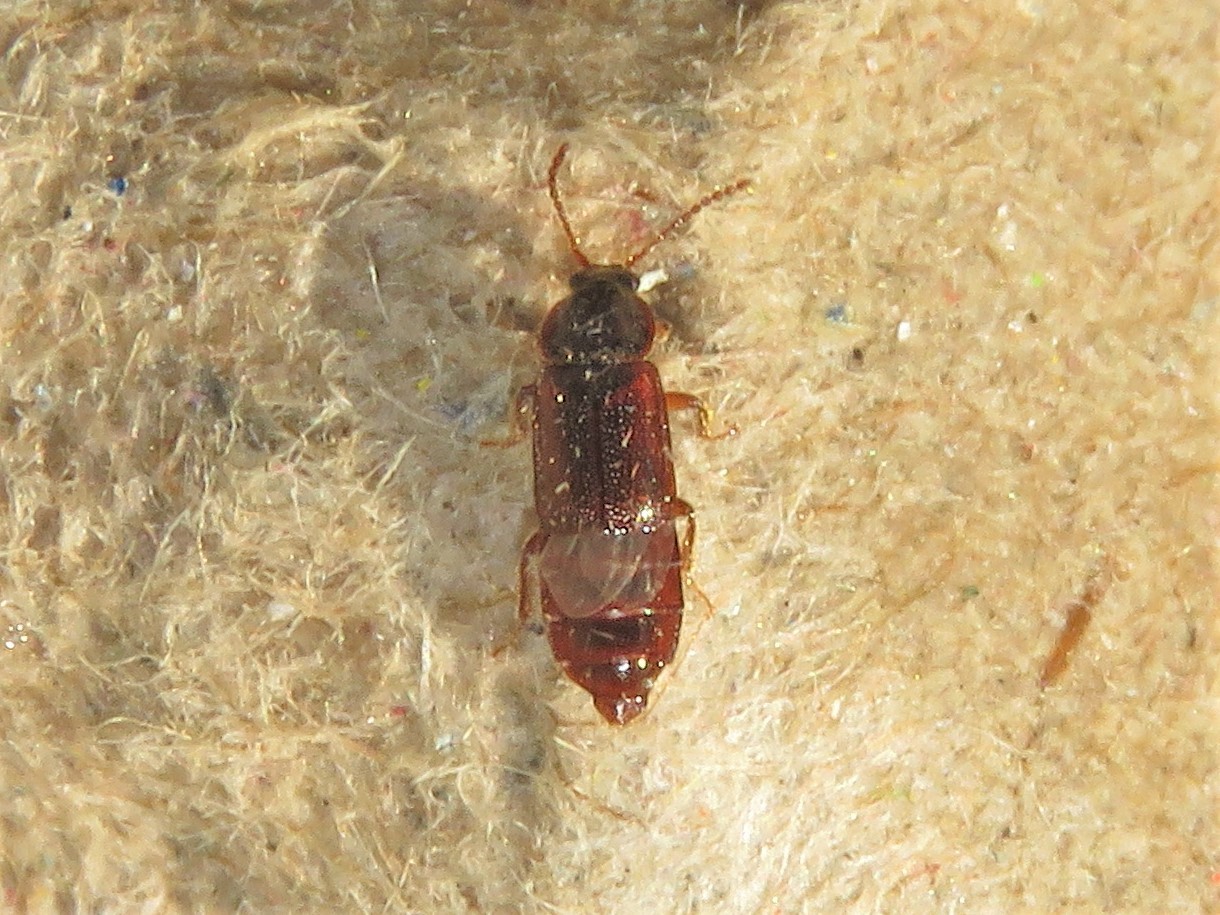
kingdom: Animalia
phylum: Arthropoda
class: Insecta
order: Coleoptera
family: Staphylinidae
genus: Acidota
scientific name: Acidota subcarinata
